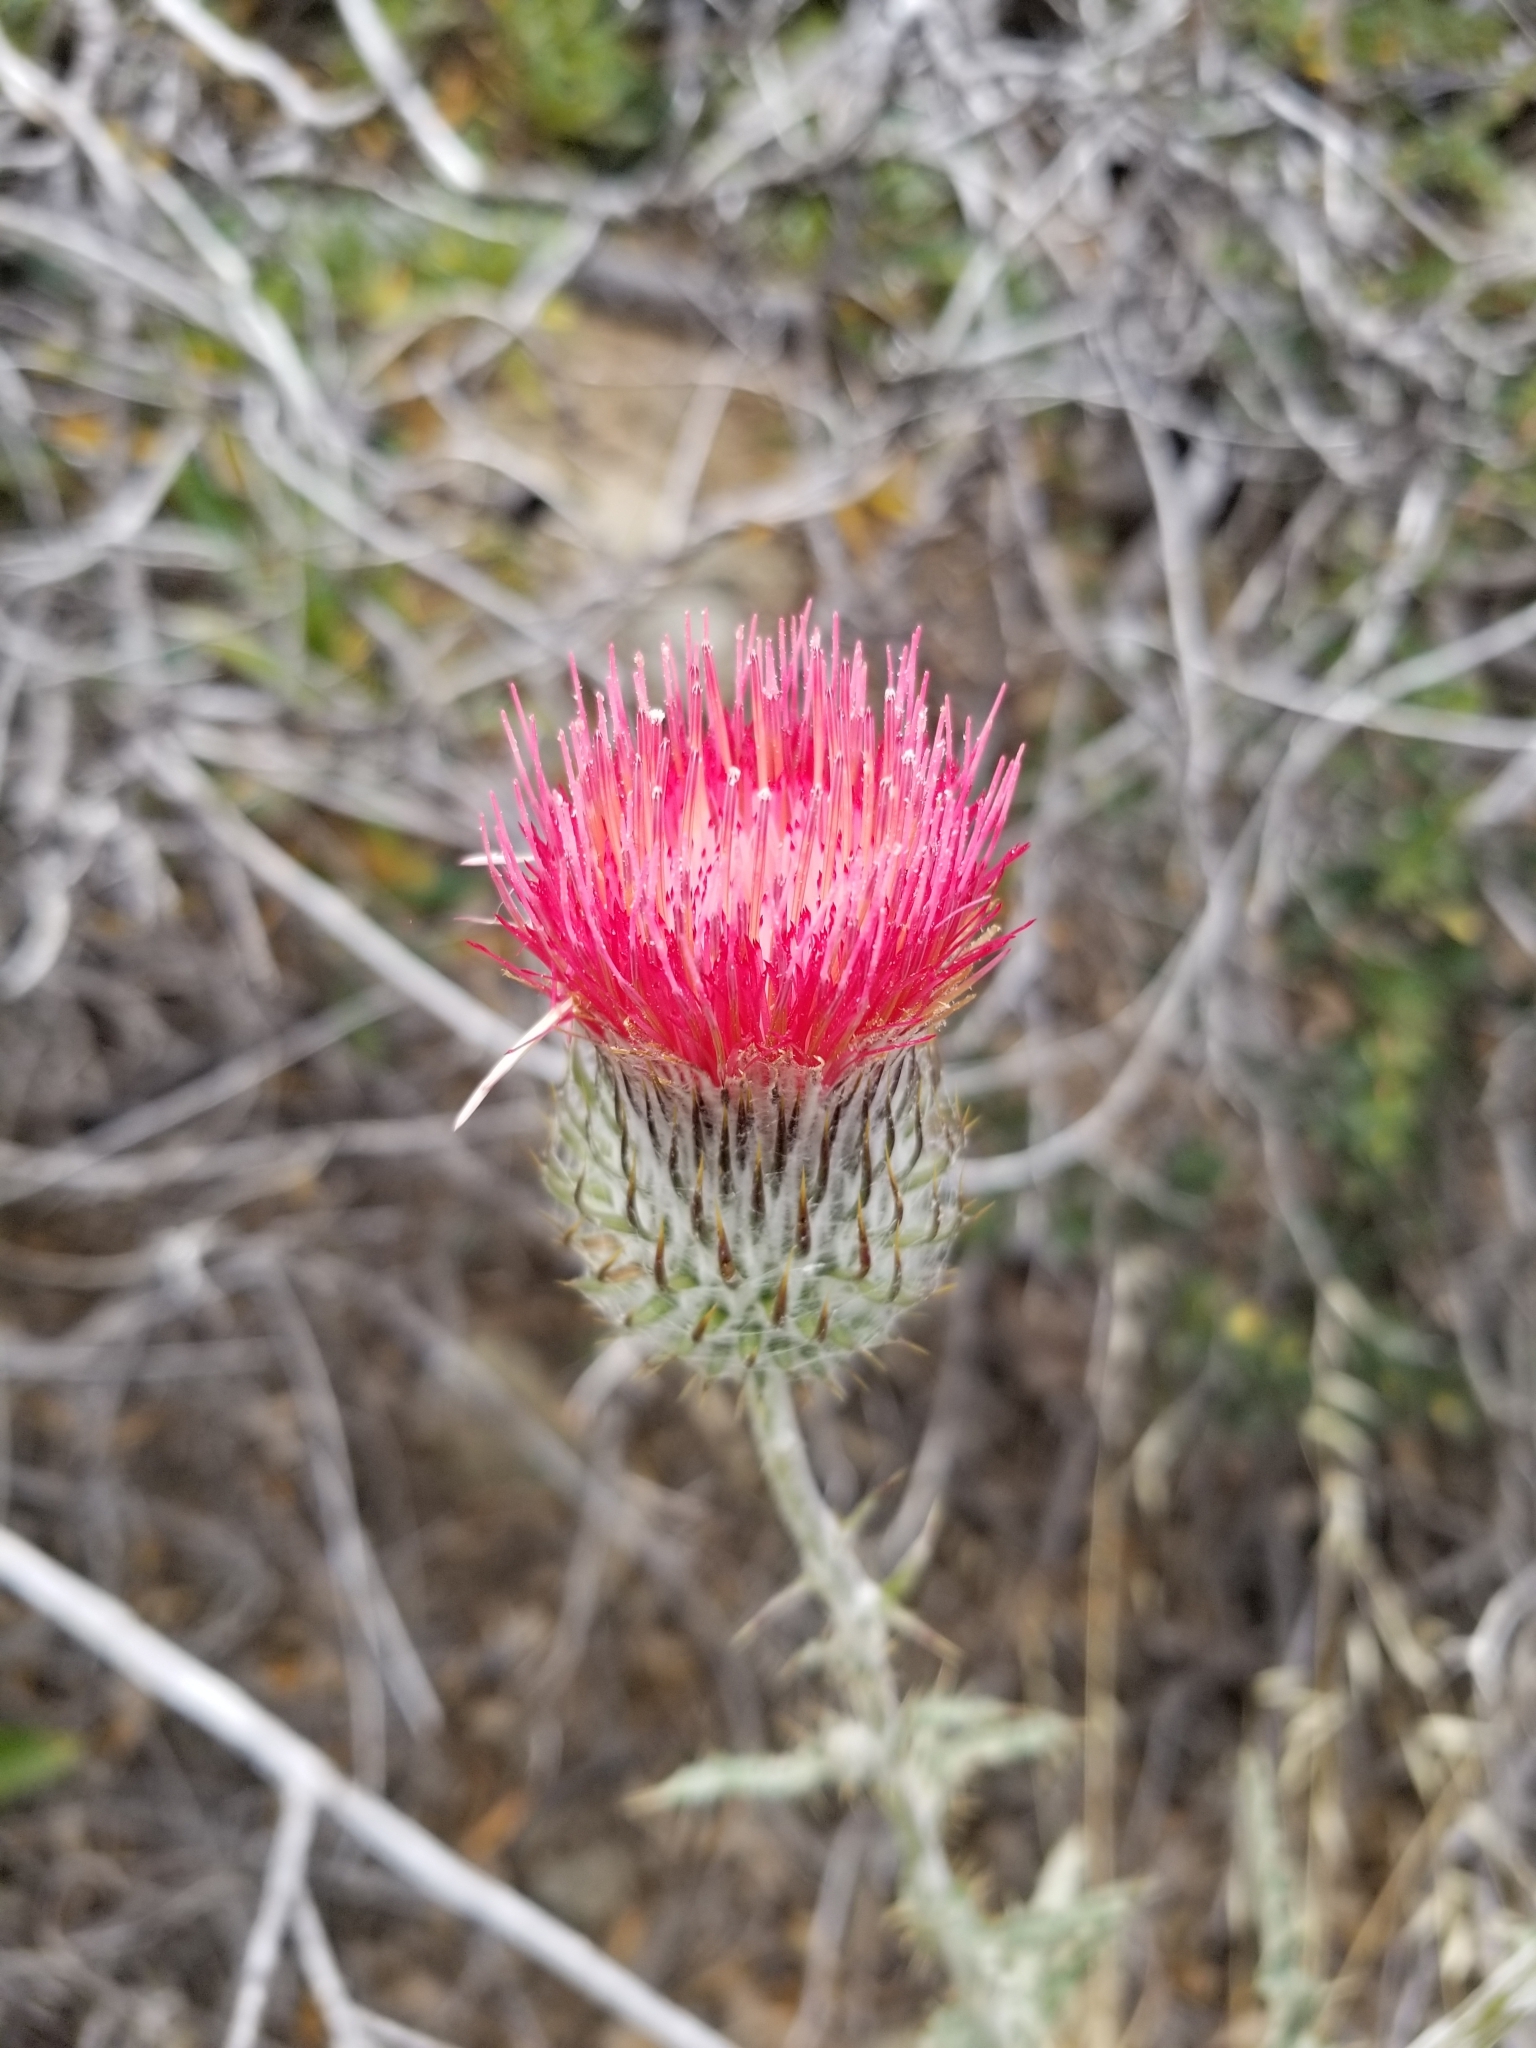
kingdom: Plantae
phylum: Tracheophyta
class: Magnoliopsida
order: Asterales
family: Asteraceae
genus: Cirsium
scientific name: Cirsium occidentale
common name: Western thistle
